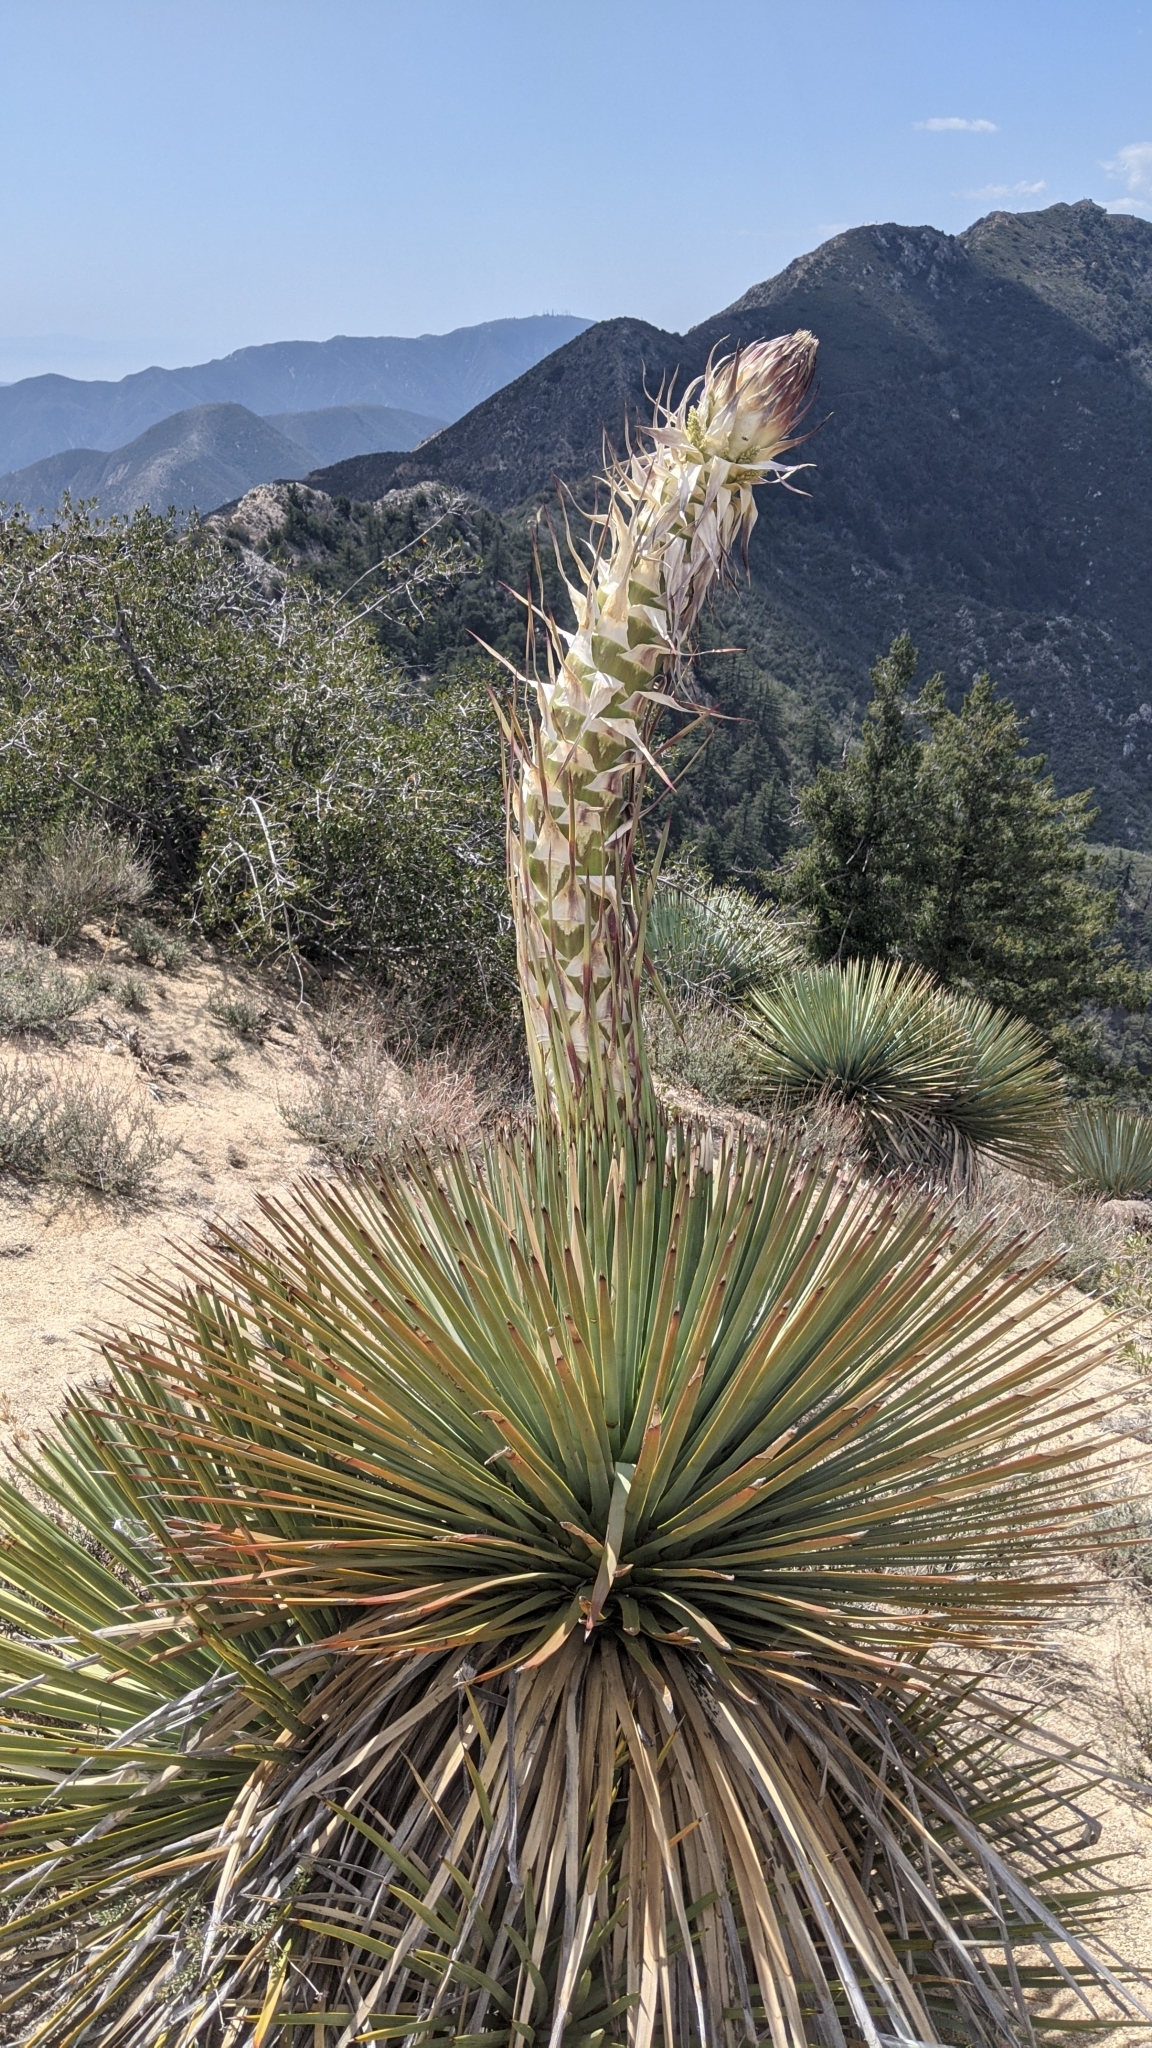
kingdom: Plantae
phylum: Tracheophyta
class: Liliopsida
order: Asparagales
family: Asparagaceae
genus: Hesperoyucca
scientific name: Hesperoyucca whipplei
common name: Our lord's-candle
